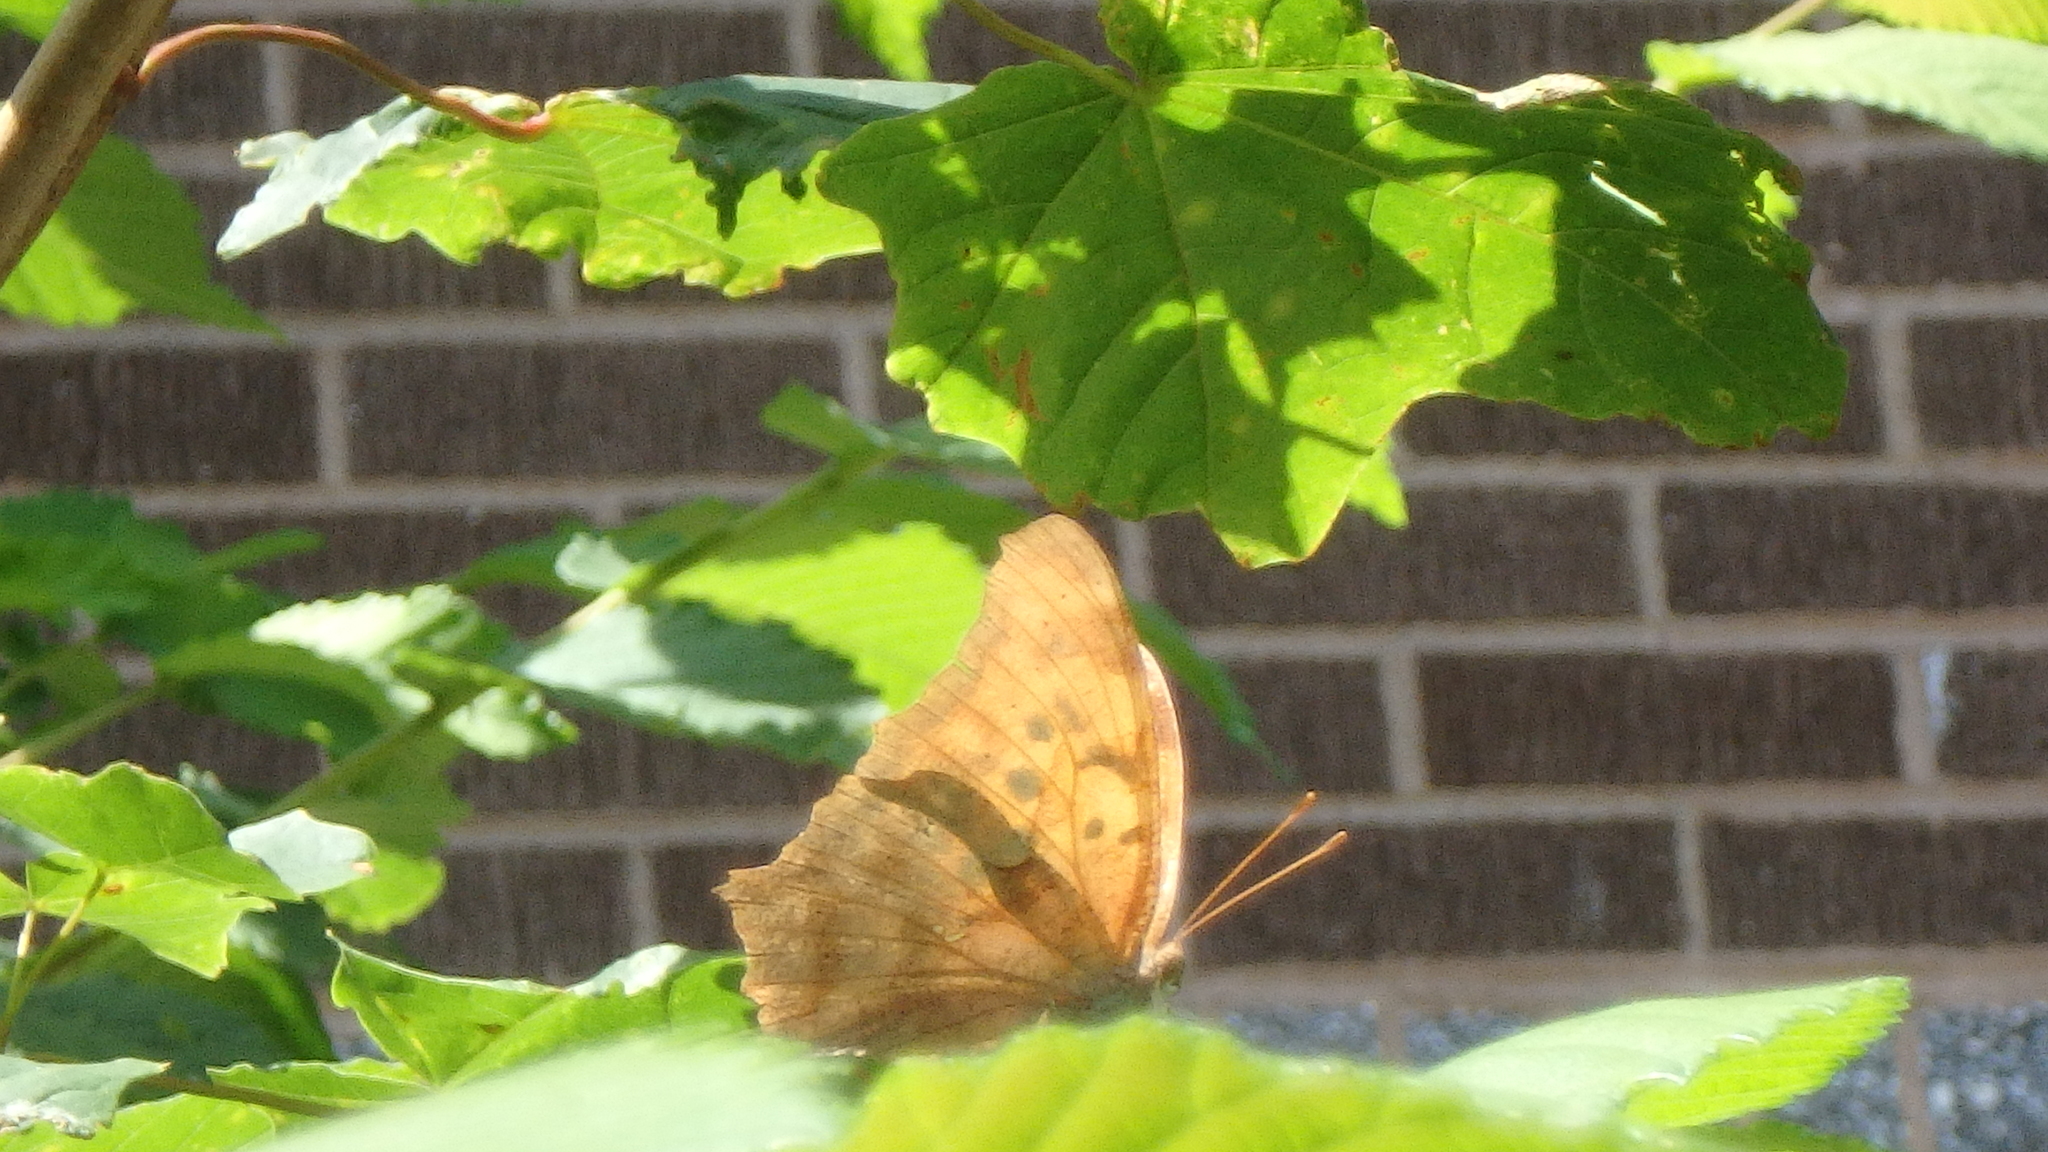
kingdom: Animalia
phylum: Arthropoda
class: Insecta
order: Lepidoptera
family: Nymphalidae
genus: Polygonia
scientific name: Polygonia interrogationis
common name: Question mark
